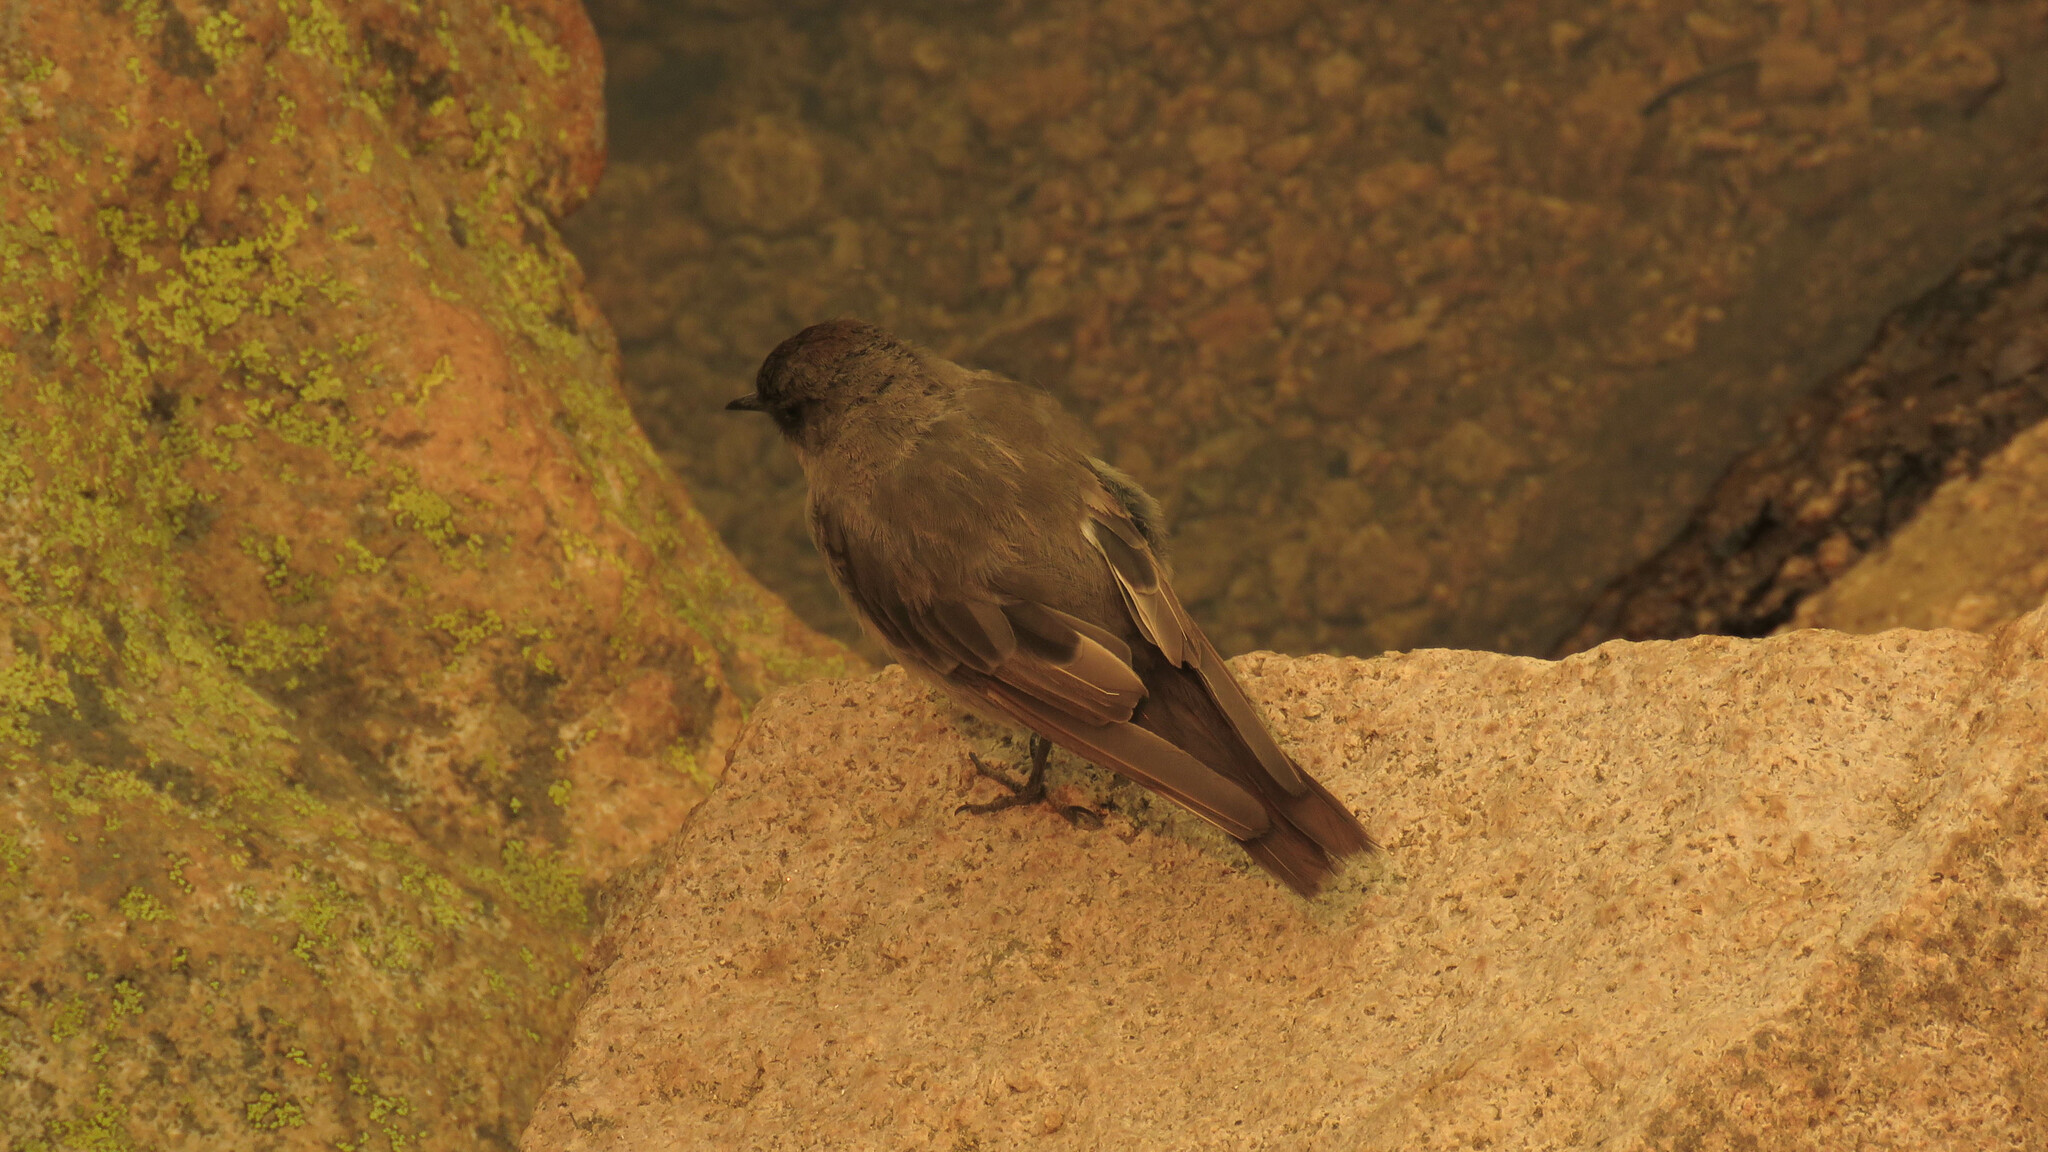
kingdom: Animalia
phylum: Chordata
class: Aves
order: Passeriformes
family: Tyrannidae
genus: Muscisaxicola
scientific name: Muscisaxicola maclovianus
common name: Dark-faced ground tyrant
